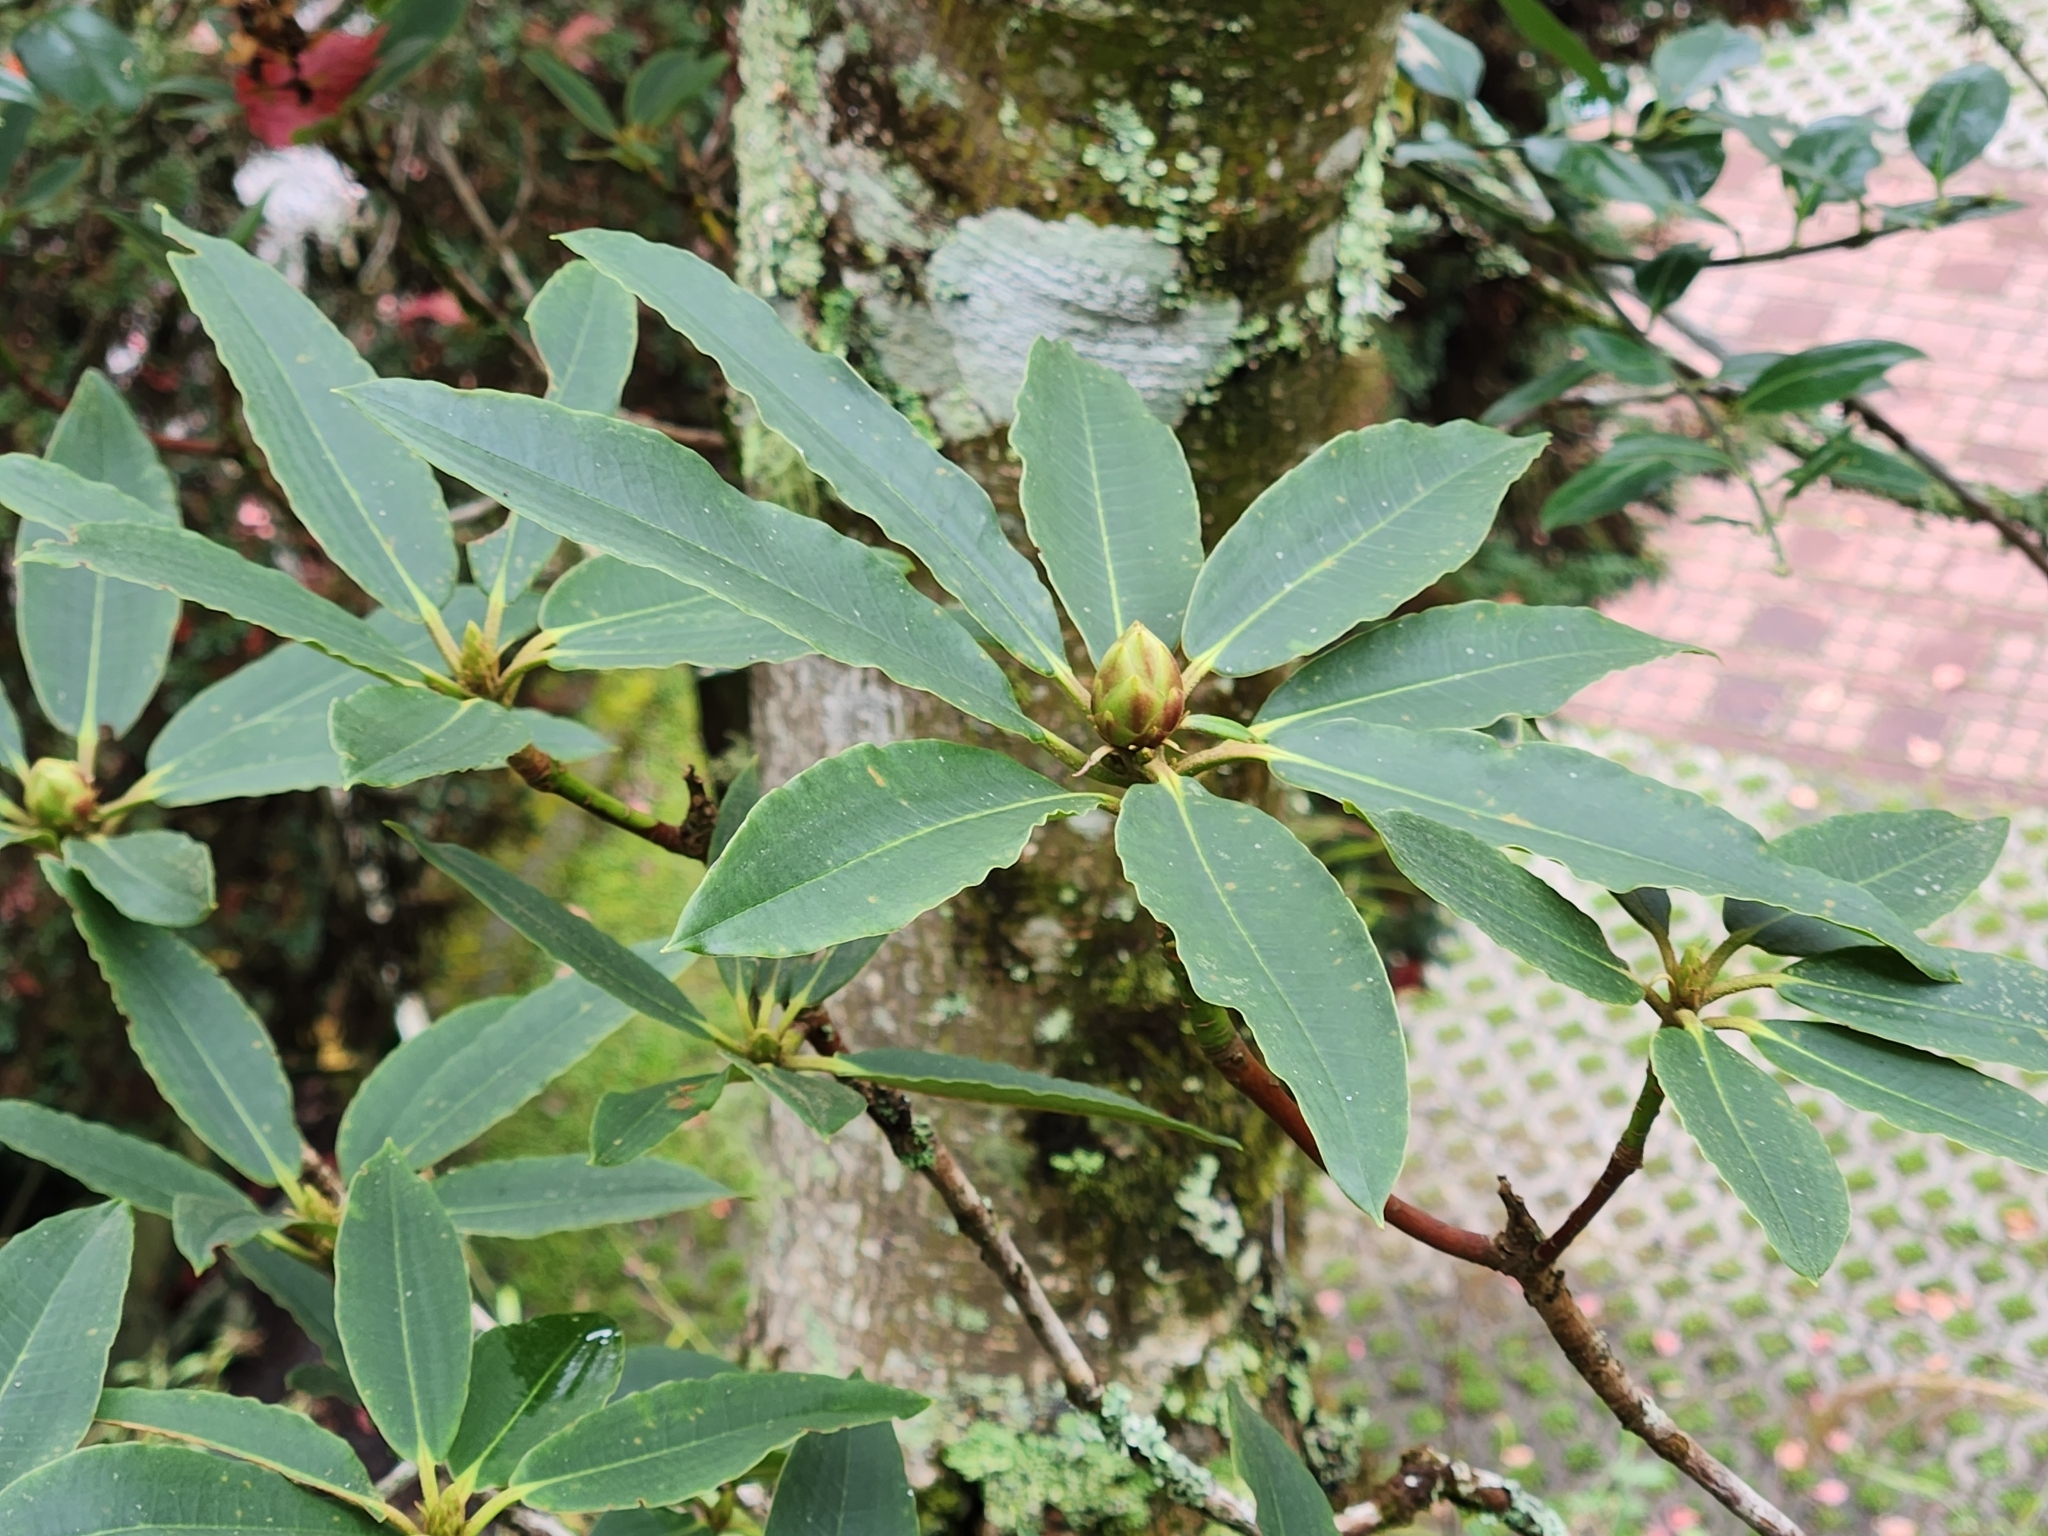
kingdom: Plantae
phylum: Tracheophyta
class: Magnoliopsida
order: Ericales
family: Ericaceae
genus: Rhododendron
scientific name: Rhododendron pseudochrysanthum
